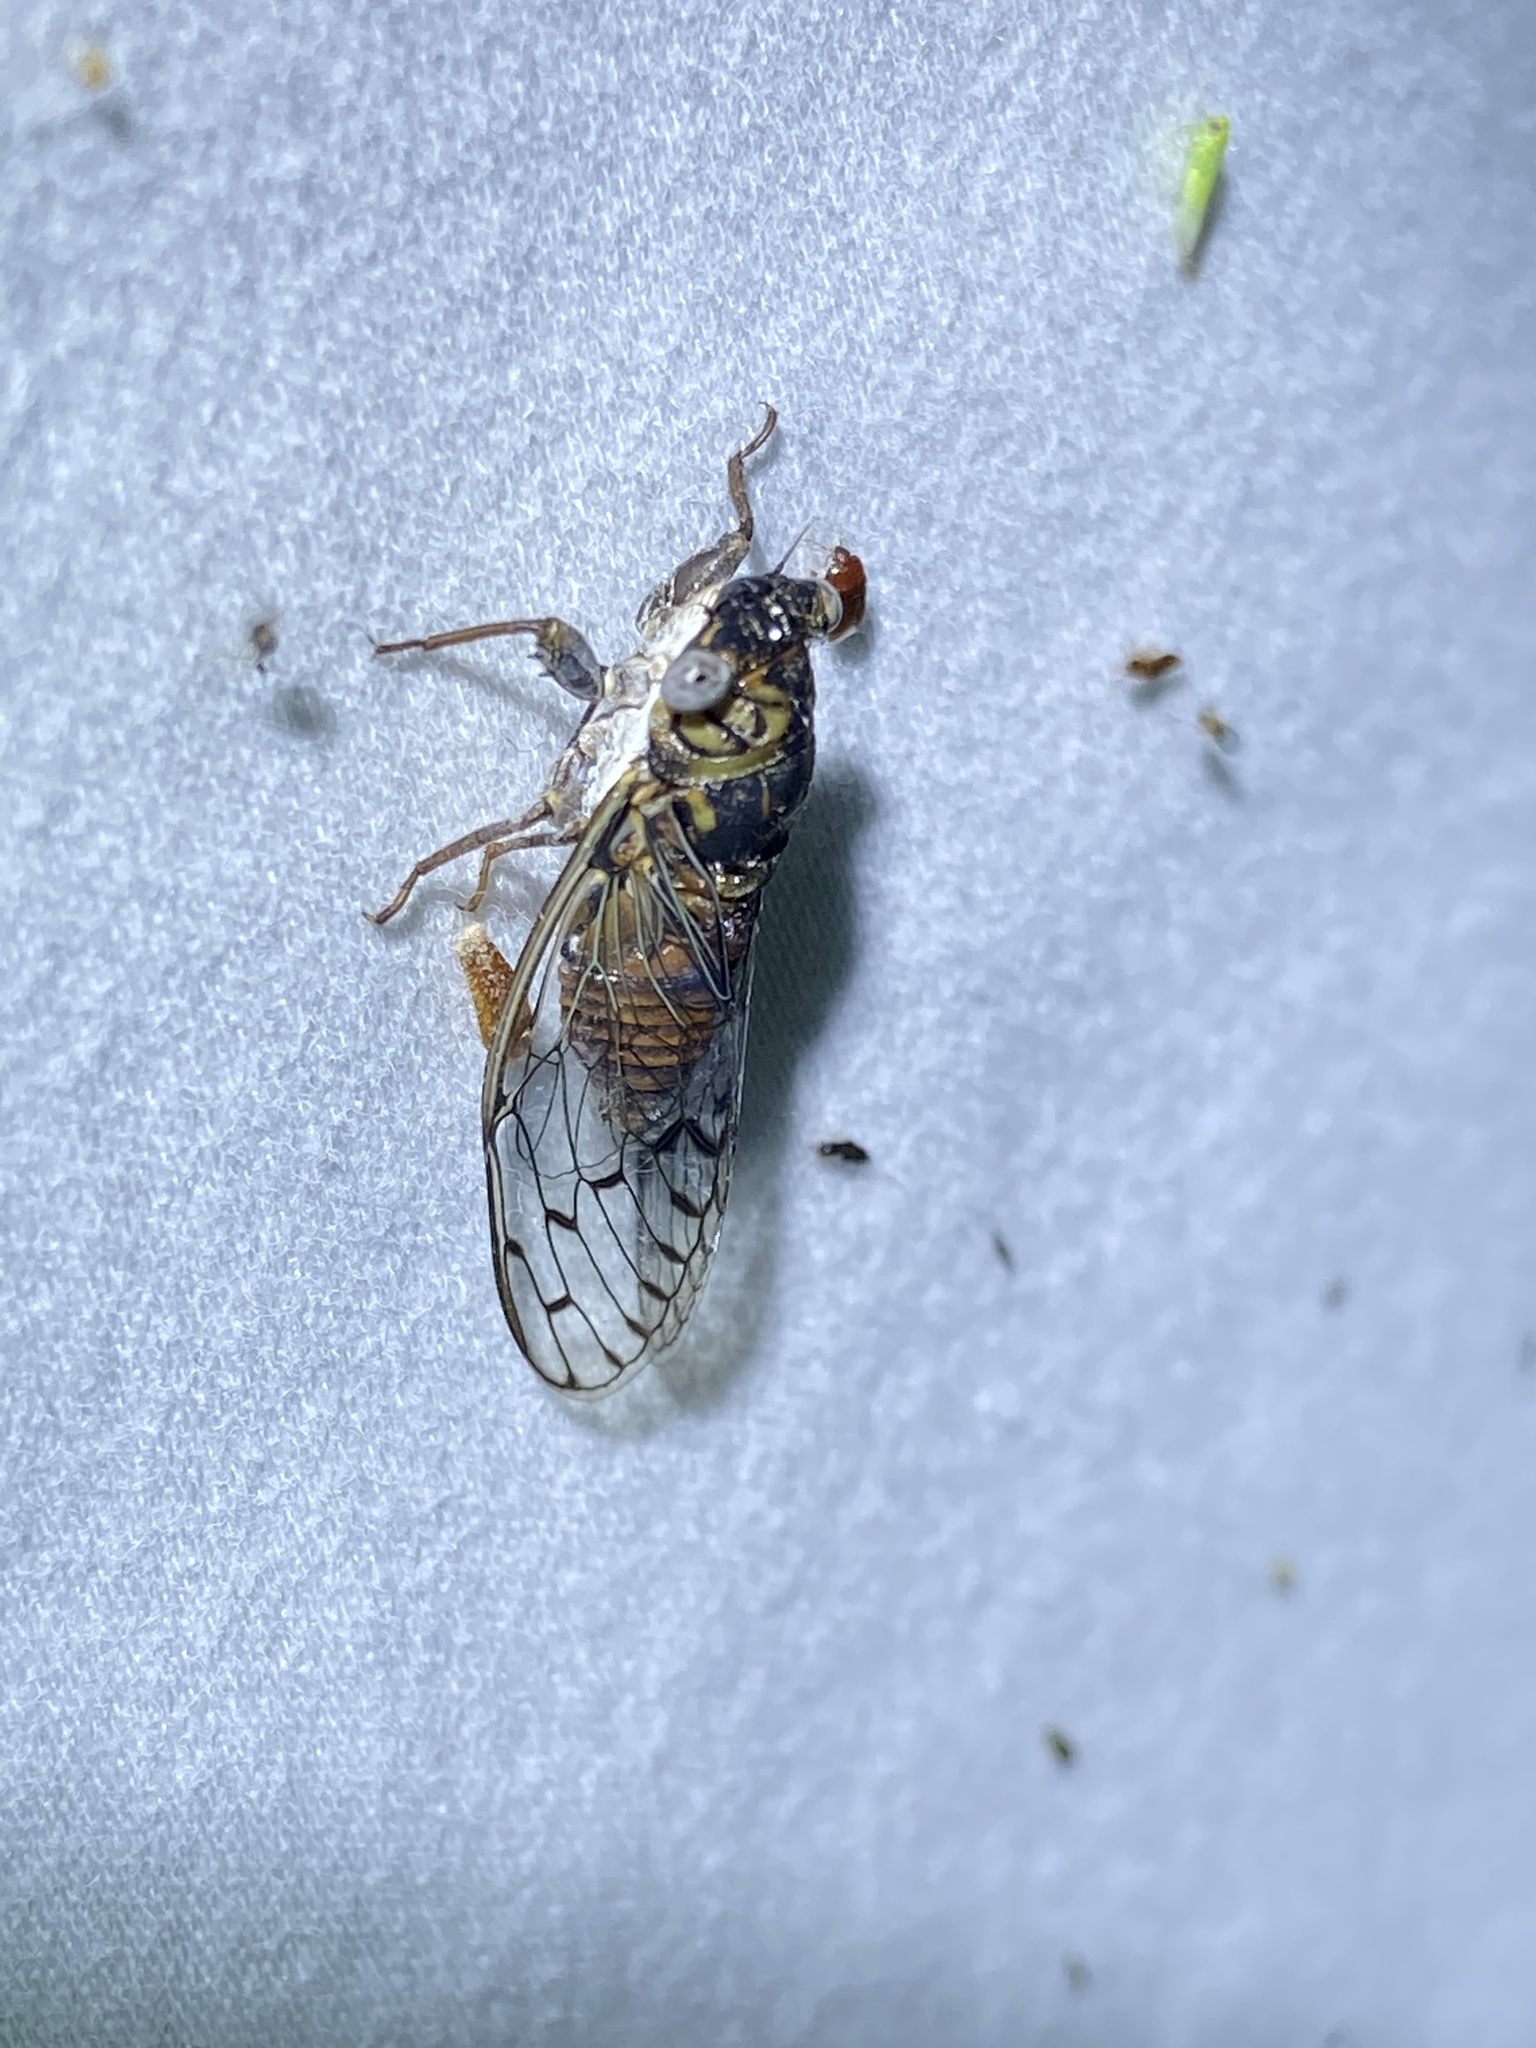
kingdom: Animalia
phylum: Arthropoda
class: Insecta
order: Hemiptera
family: Cicadidae
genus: Pacarina
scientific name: Pacarina puella
